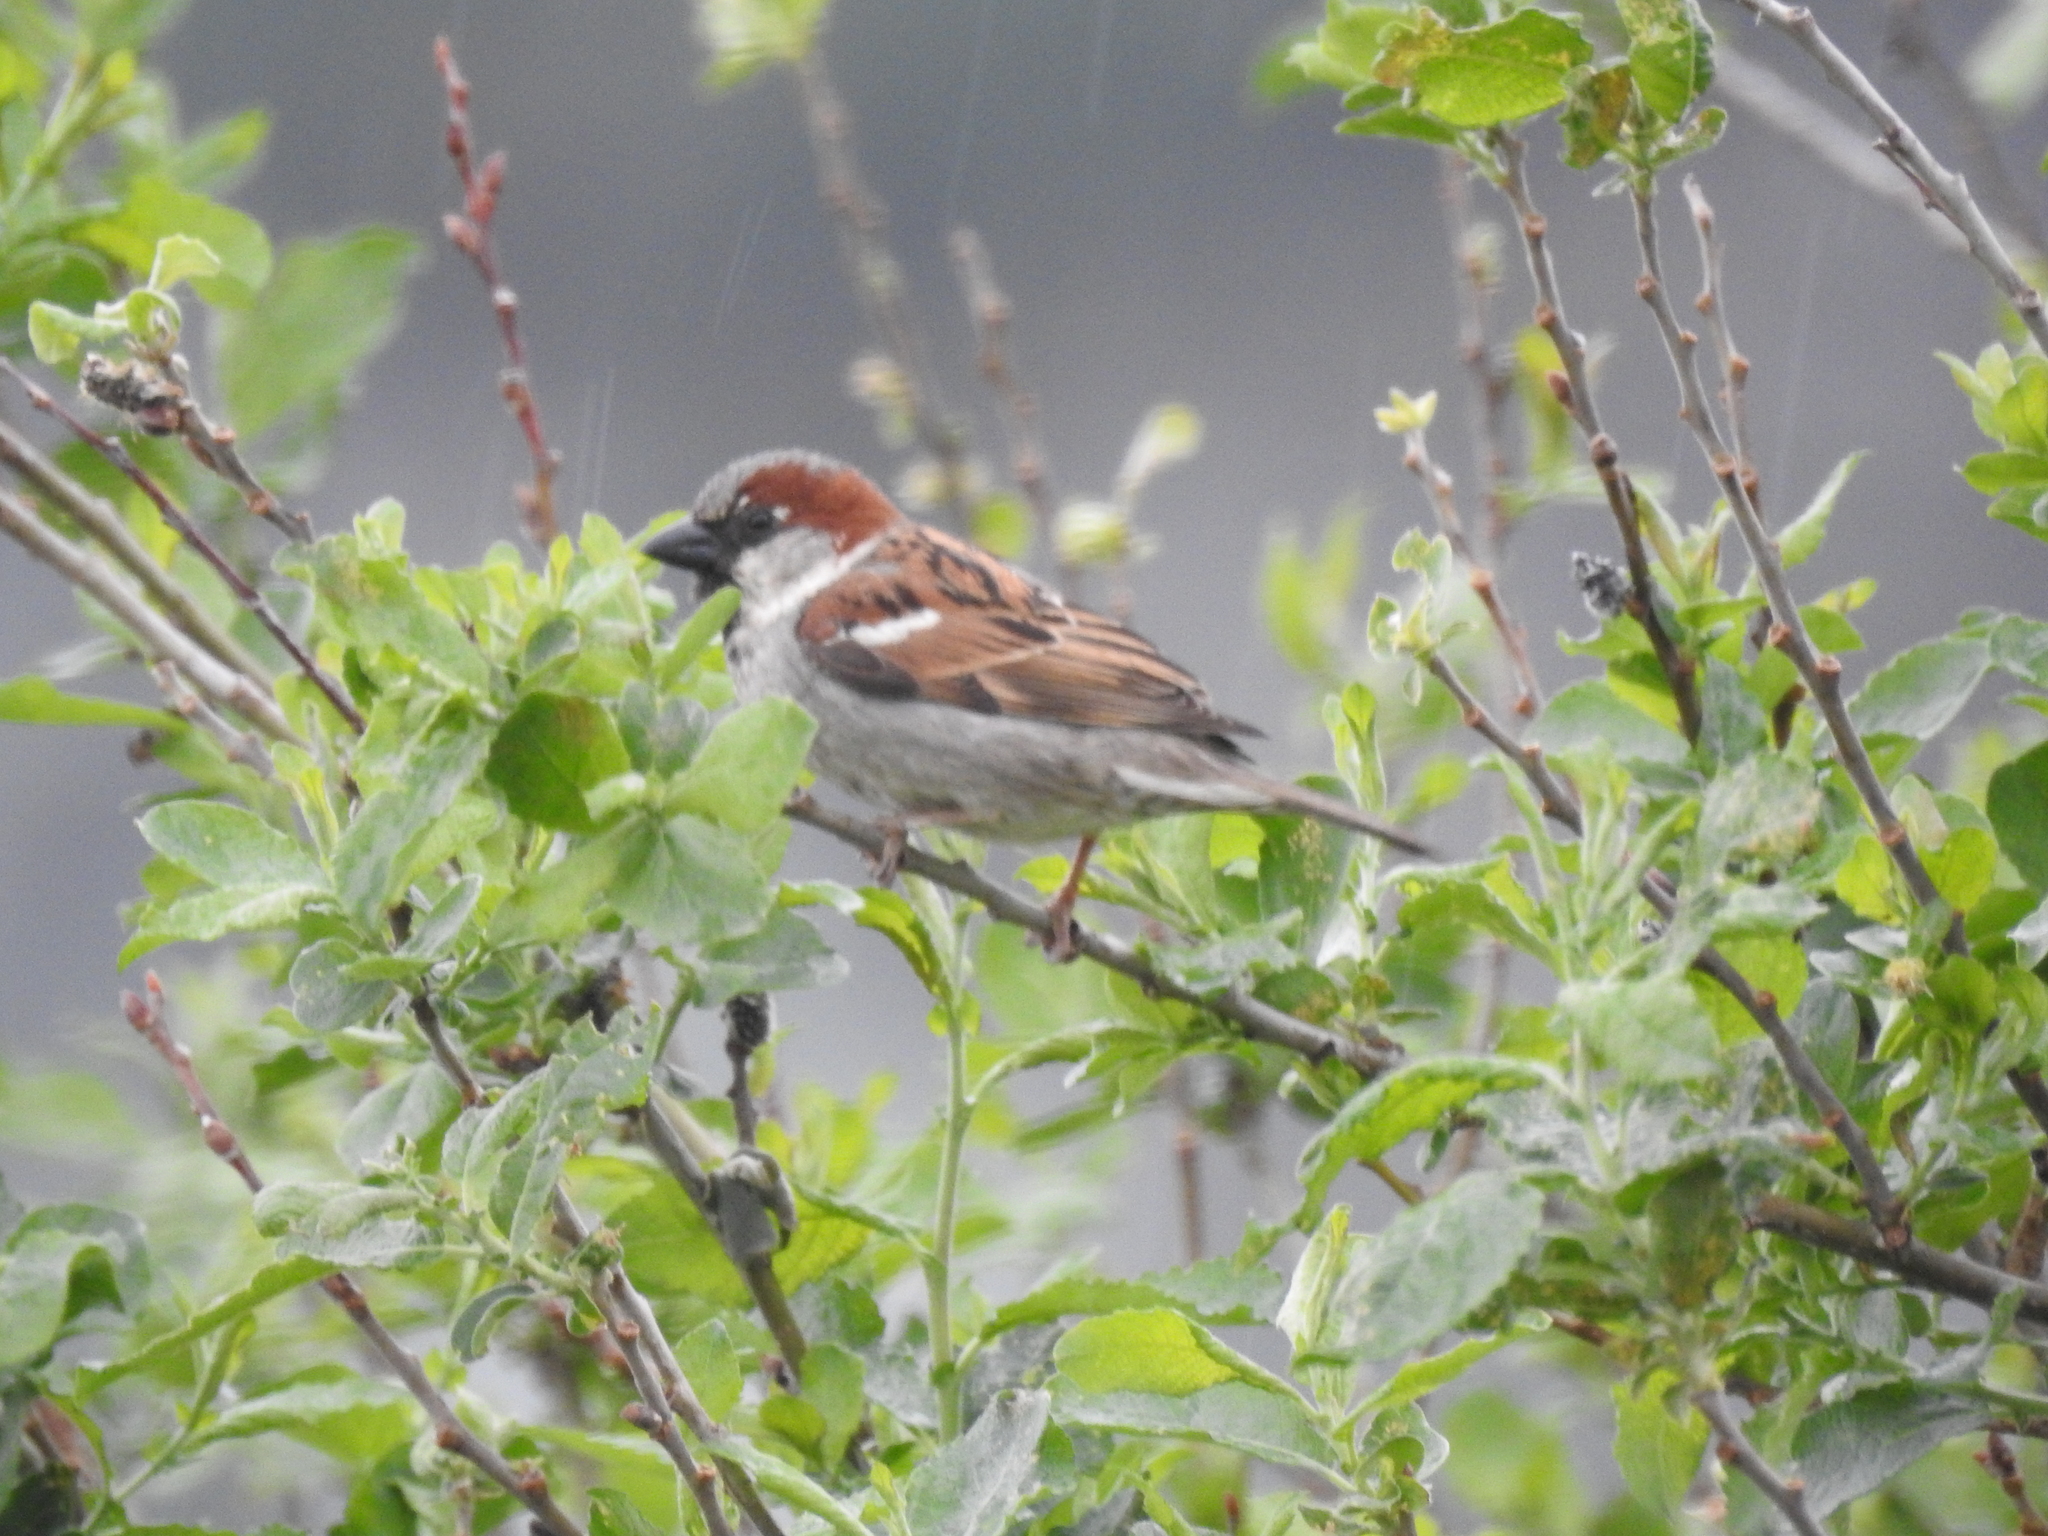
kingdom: Animalia
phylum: Chordata
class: Aves
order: Passeriformes
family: Passeridae
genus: Passer
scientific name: Passer domesticus
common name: House sparrow
